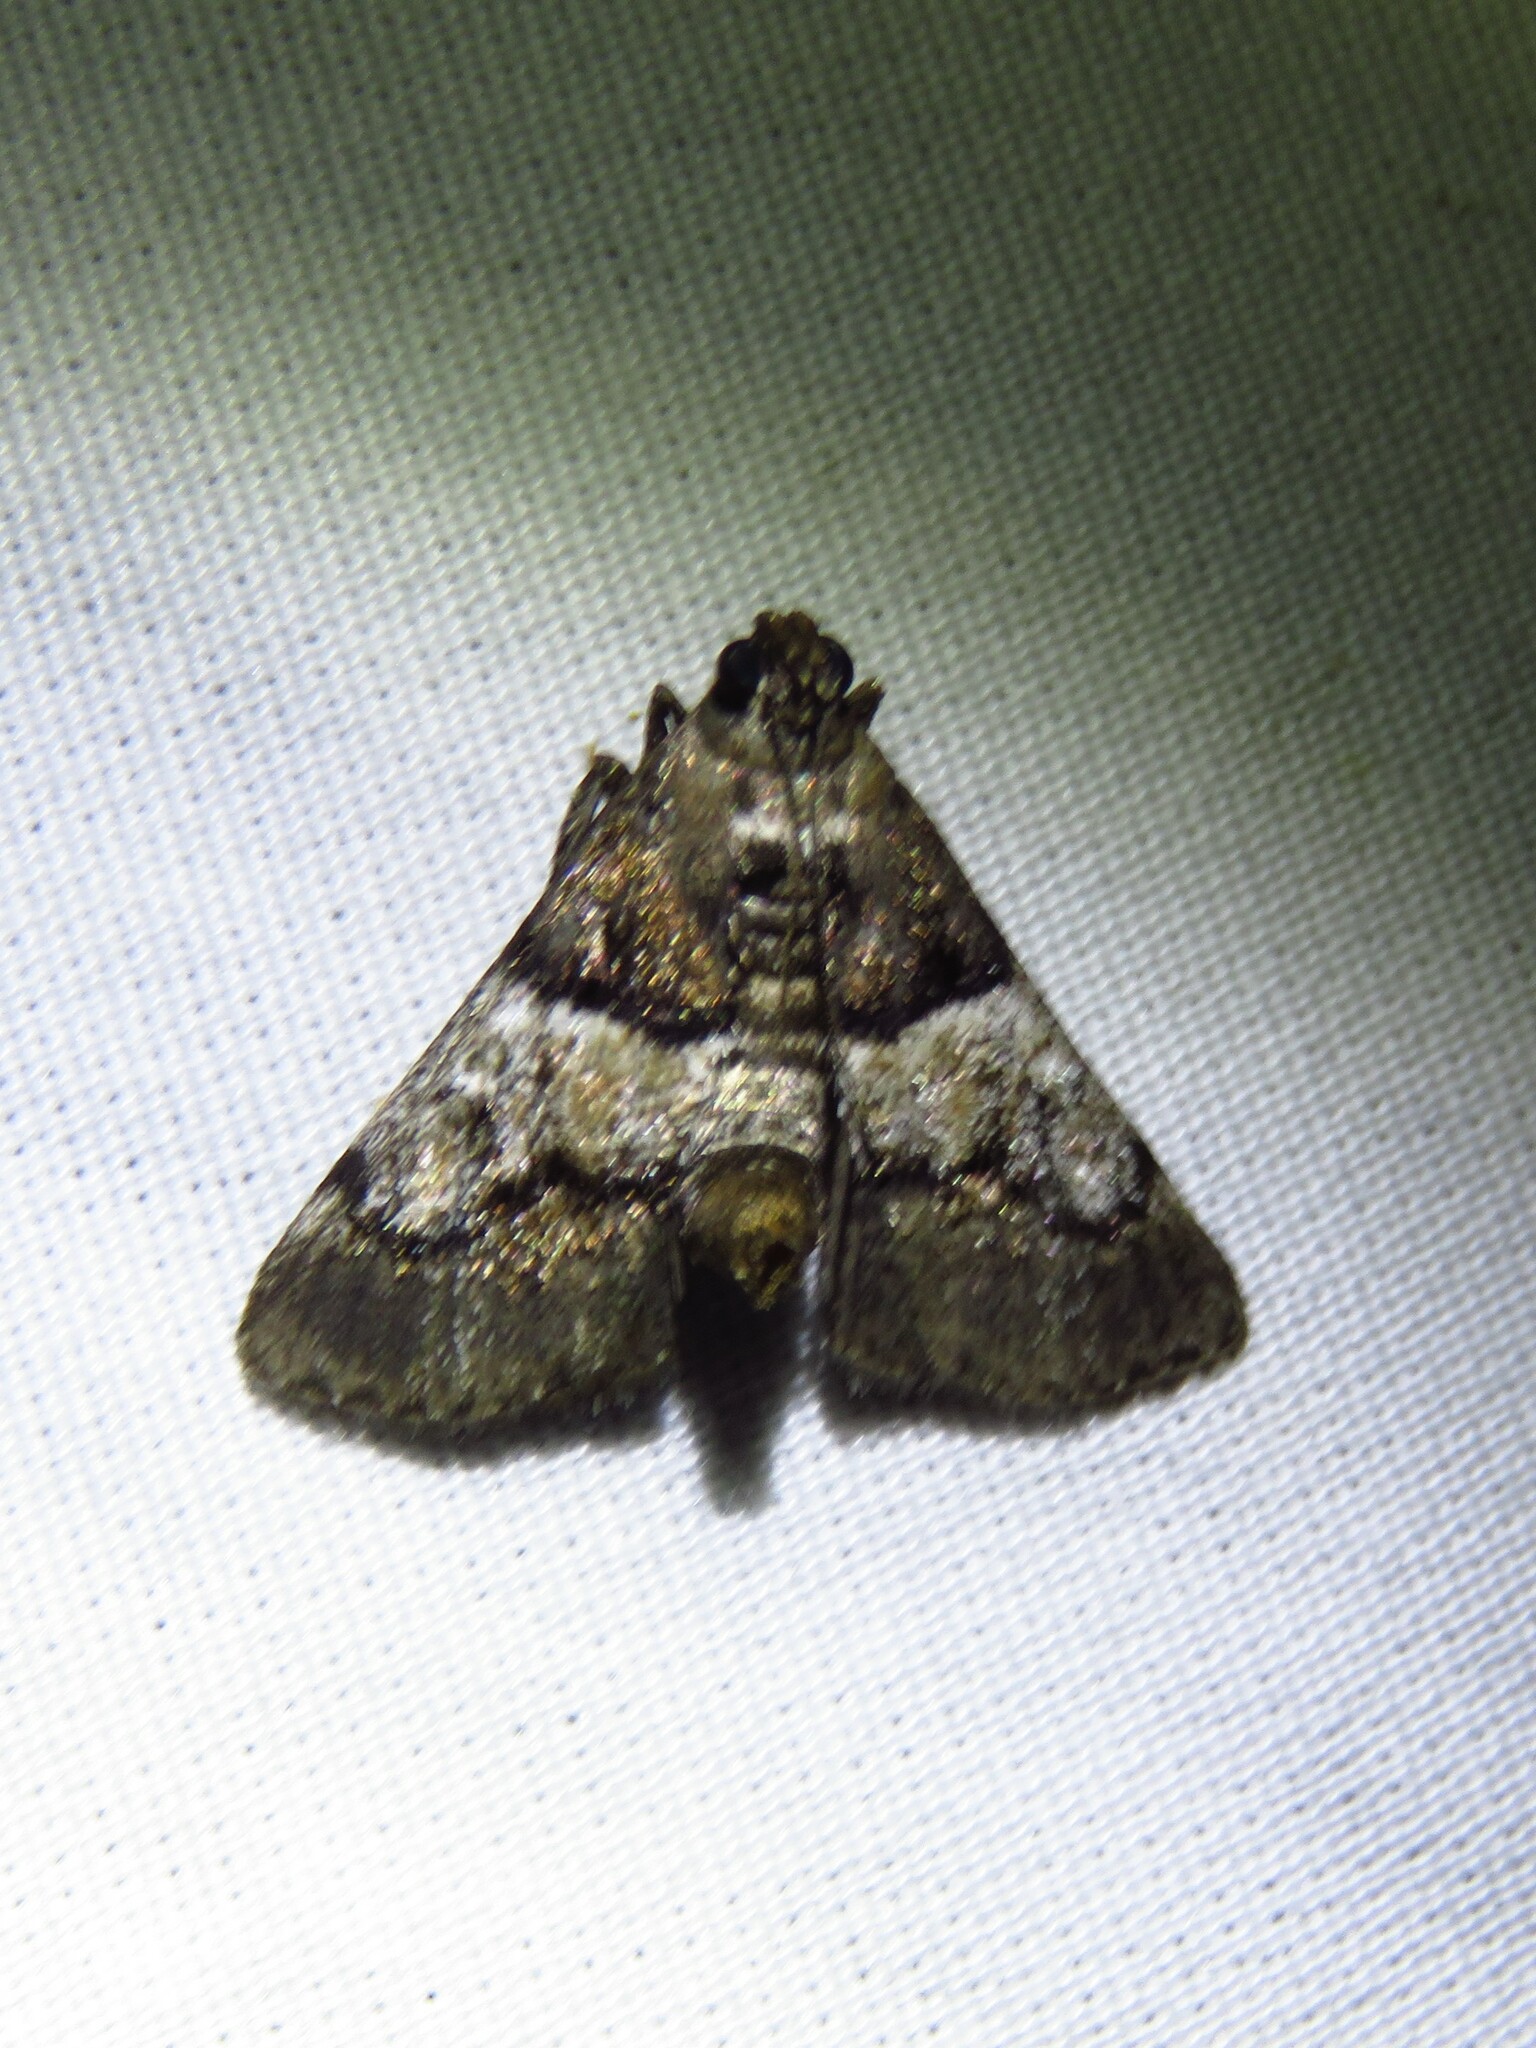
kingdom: Animalia
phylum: Arthropoda
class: Insecta
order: Lepidoptera
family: Pyralidae
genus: Macalla
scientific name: Macalla zelleri
